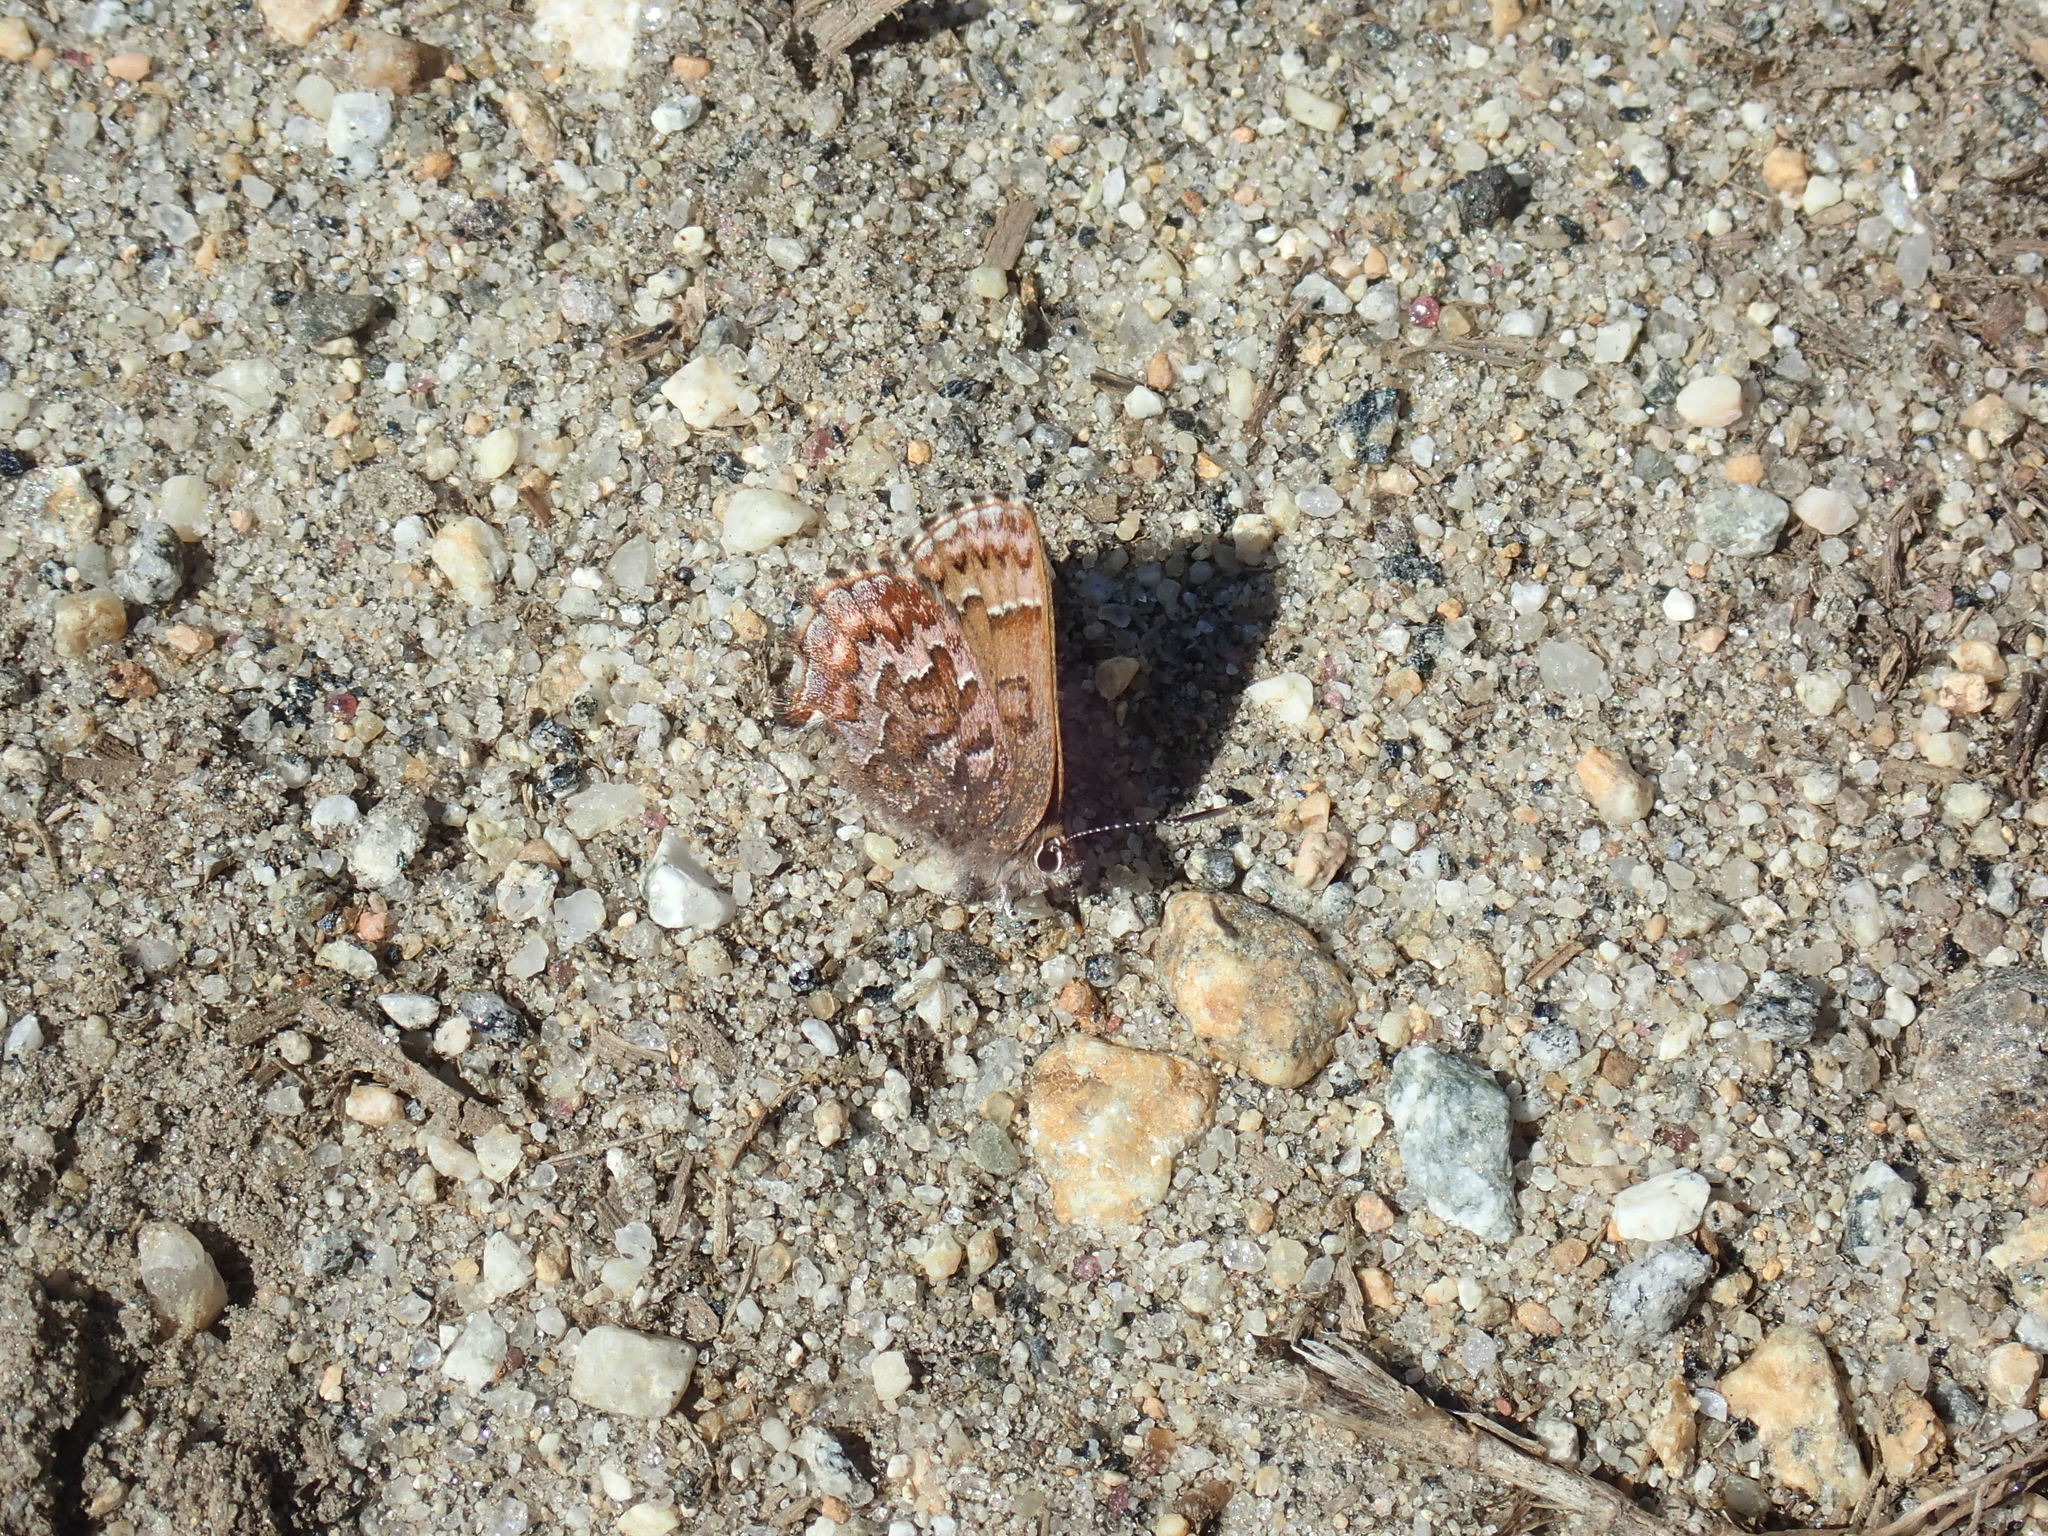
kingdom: Animalia
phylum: Arthropoda
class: Insecta
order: Lepidoptera
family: Lycaenidae
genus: Incisalia
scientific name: Incisalia niphon
